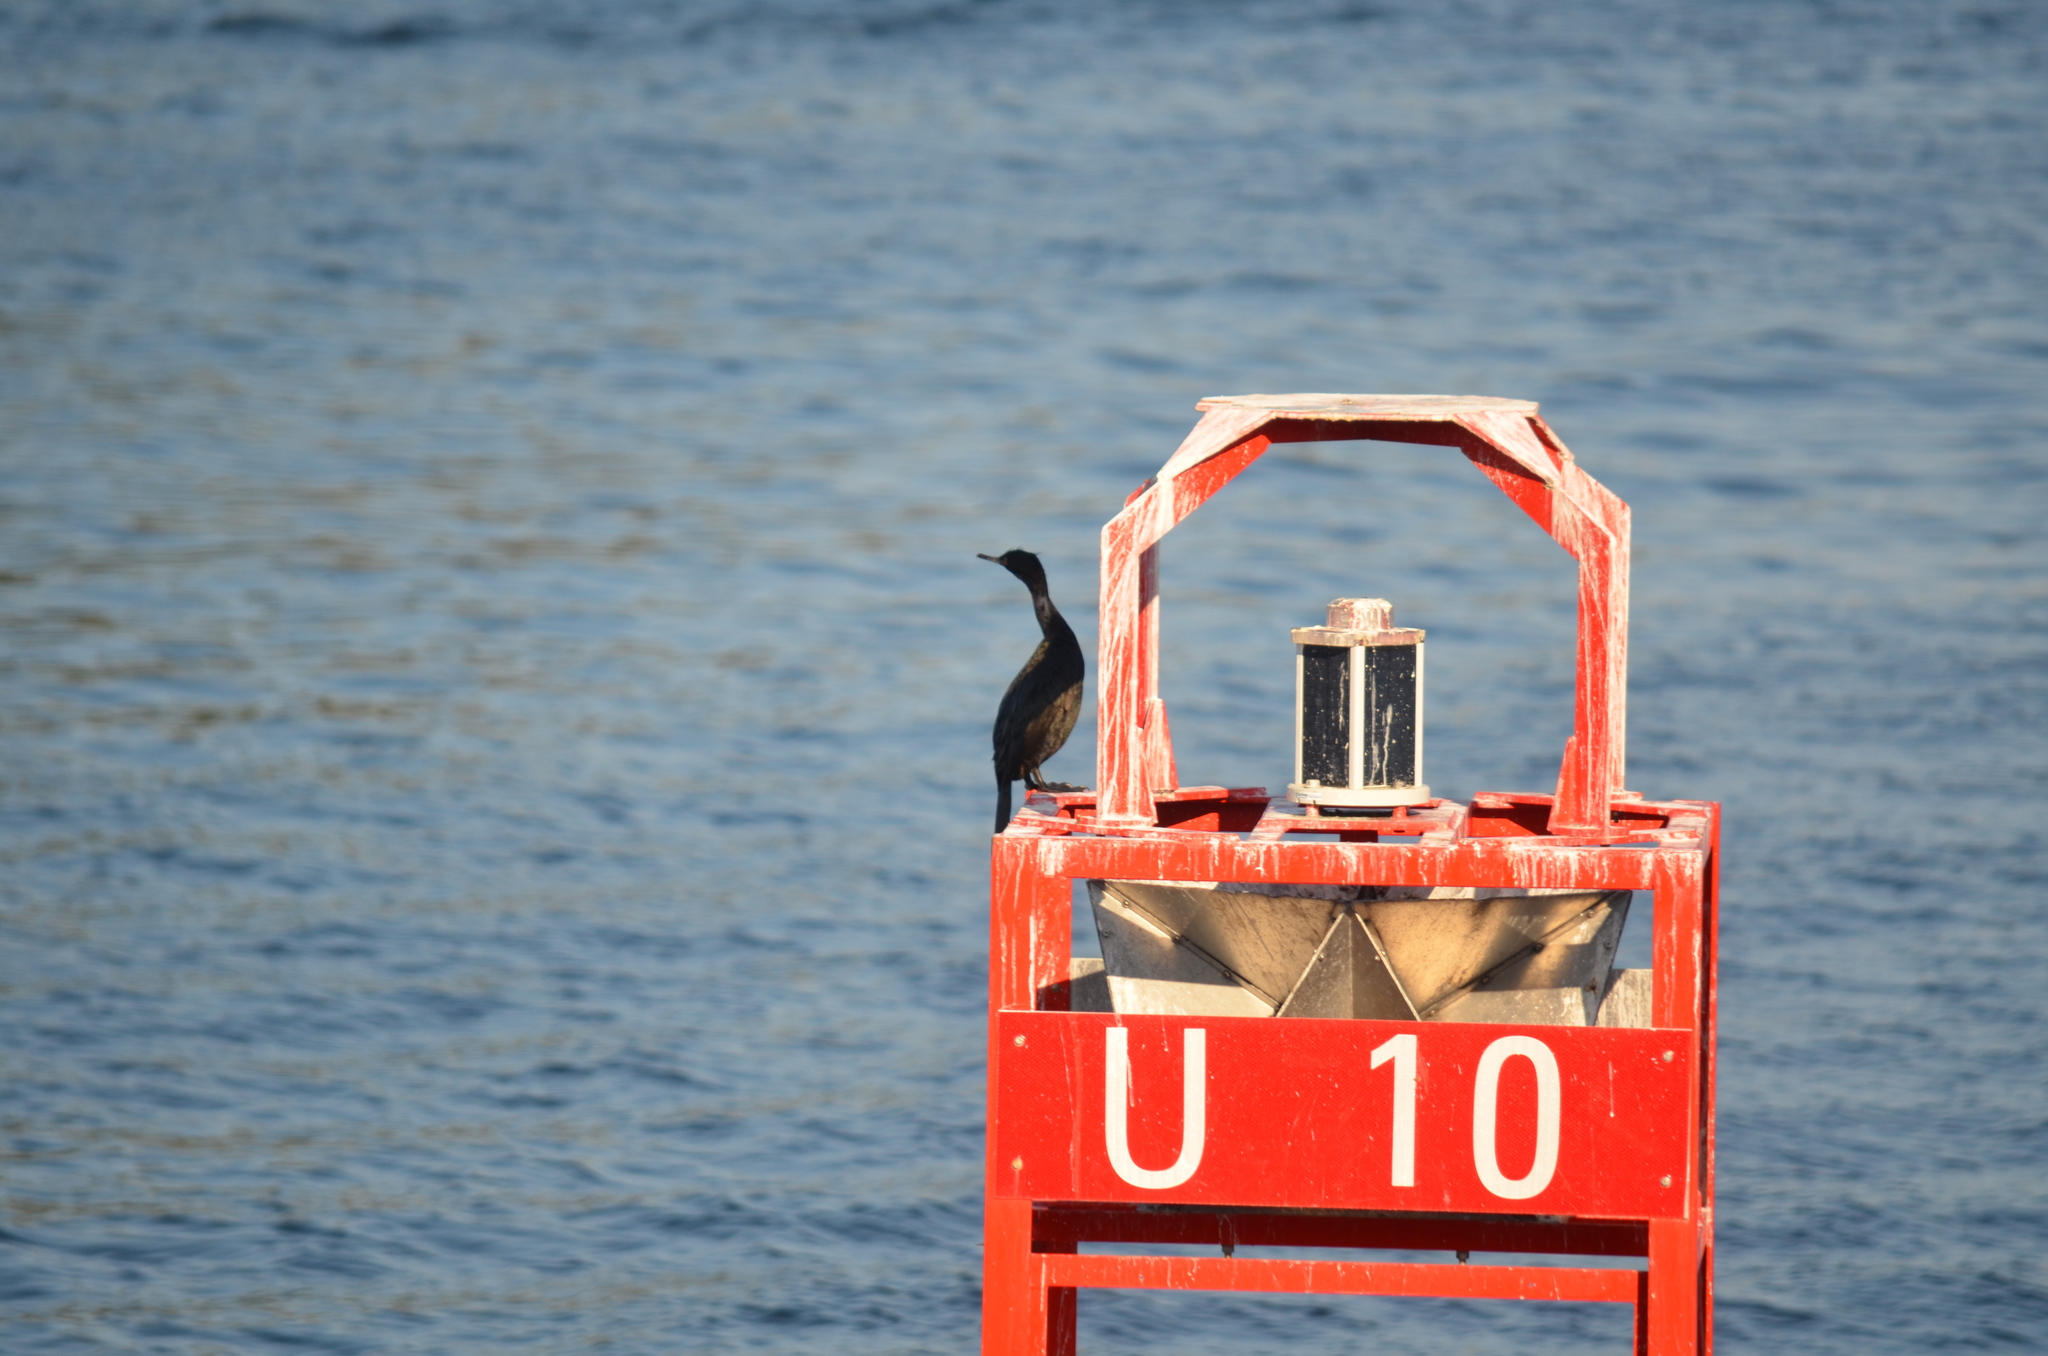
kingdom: Animalia
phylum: Chordata
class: Aves
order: Suliformes
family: Phalacrocoracidae
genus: Phalacrocorax
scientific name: Phalacrocorax pelagicus
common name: Pelagic cormorant
